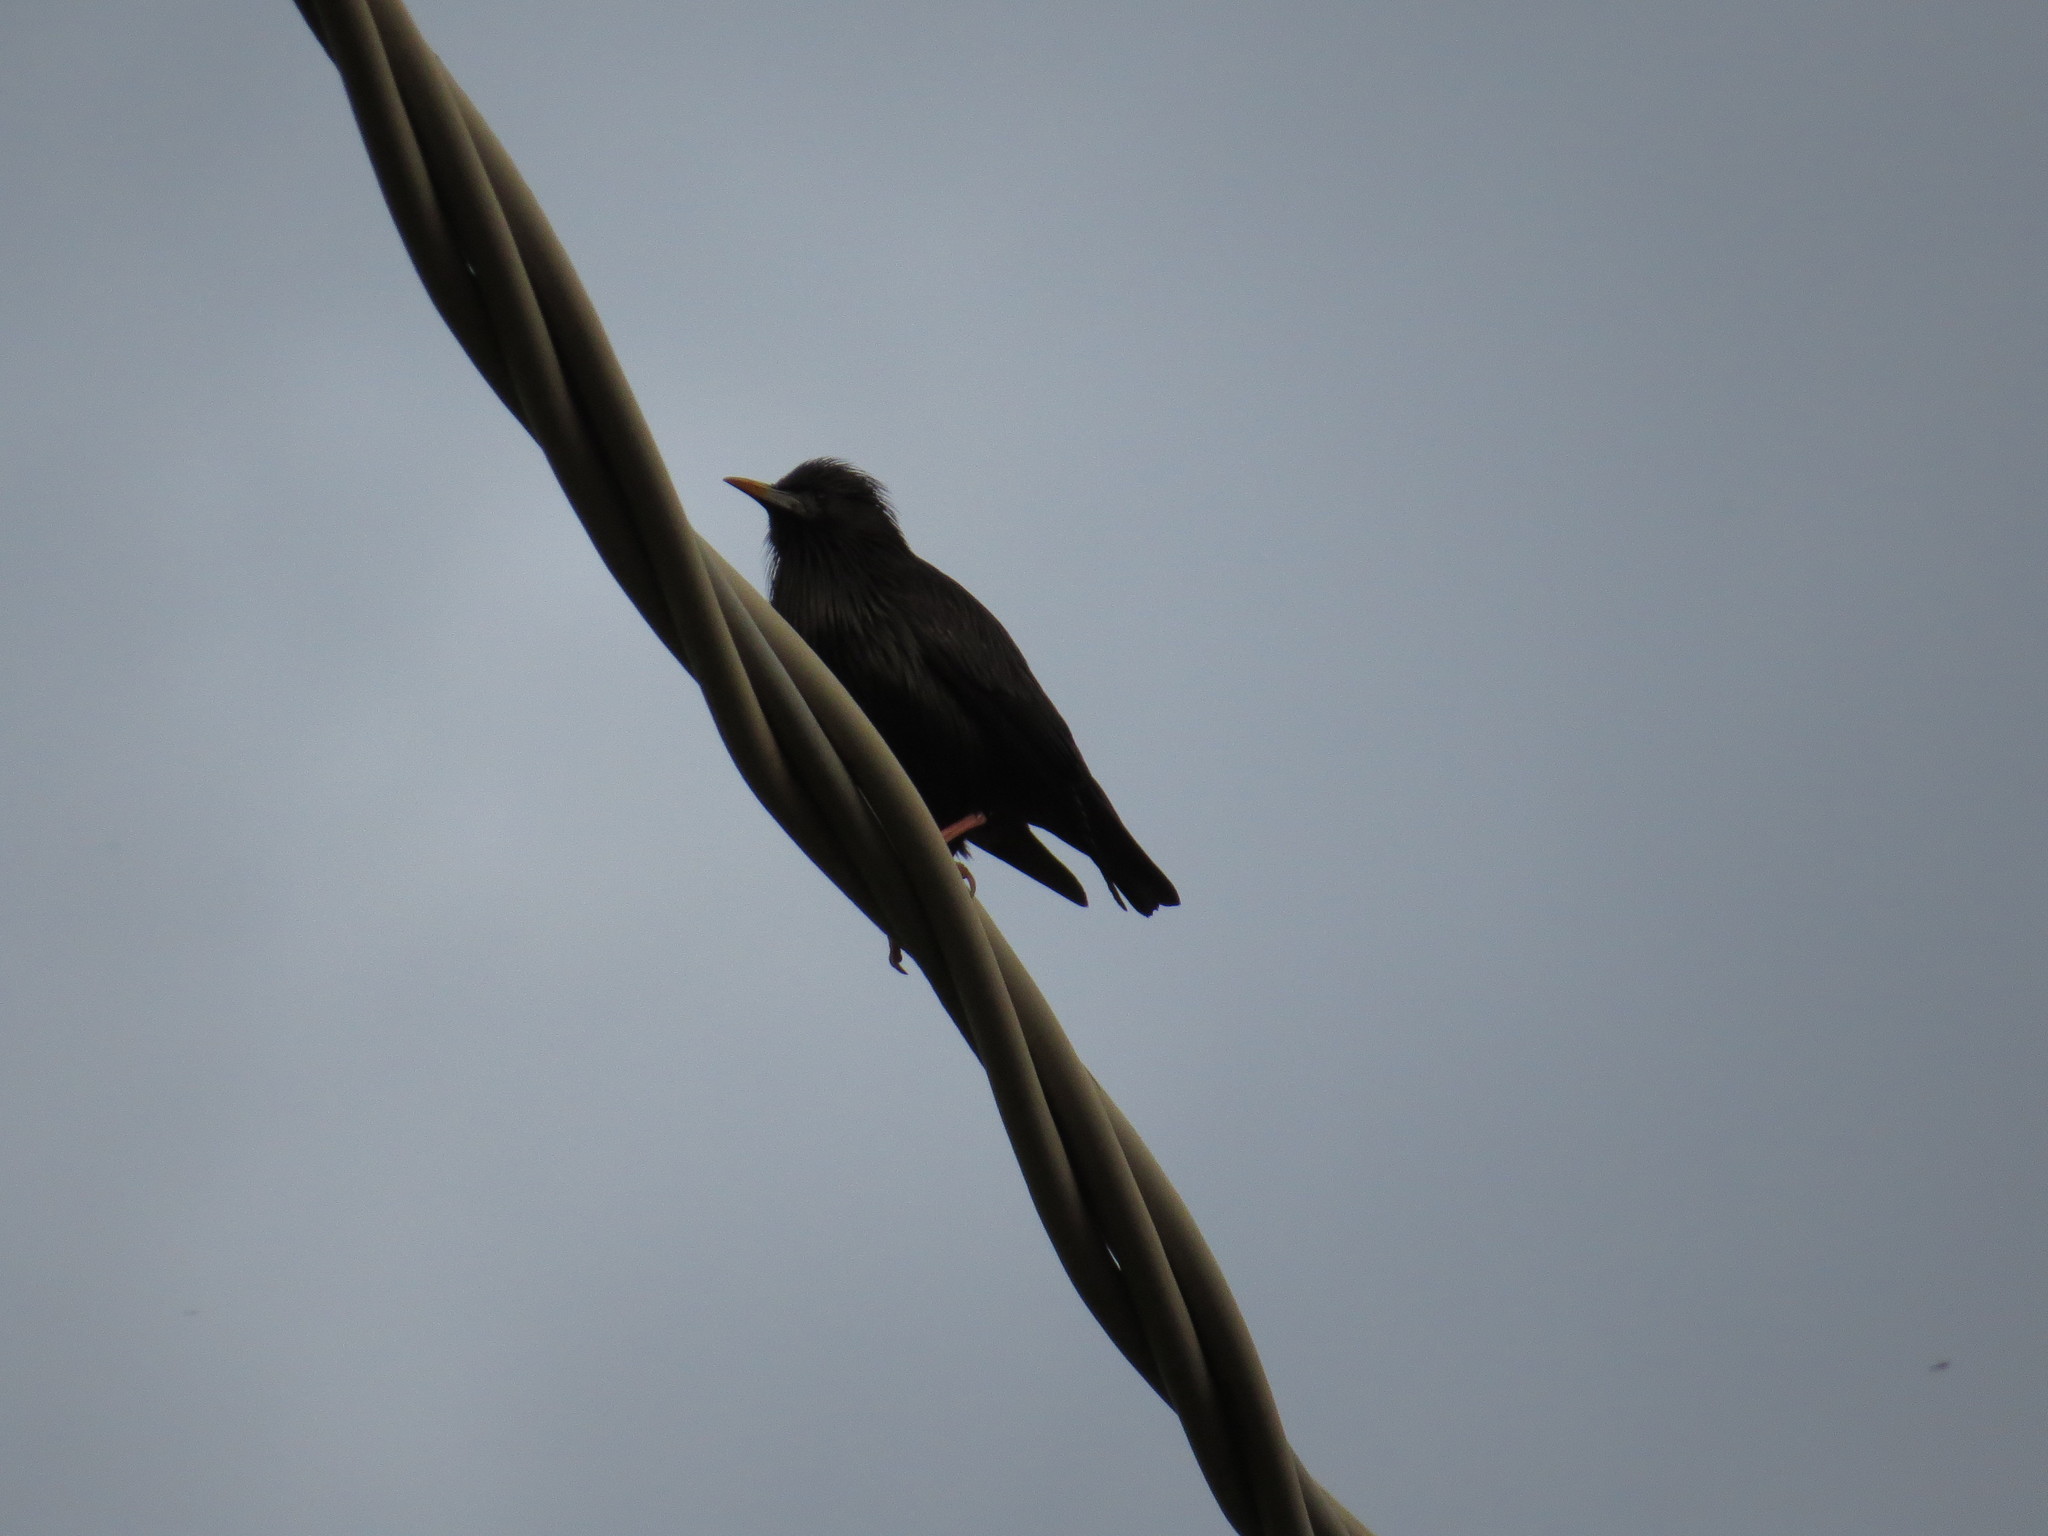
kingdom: Animalia
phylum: Chordata
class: Aves
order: Passeriformes
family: Sturnidae
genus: Sturnus
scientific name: Sturnus unicolor
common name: Spotless starling
